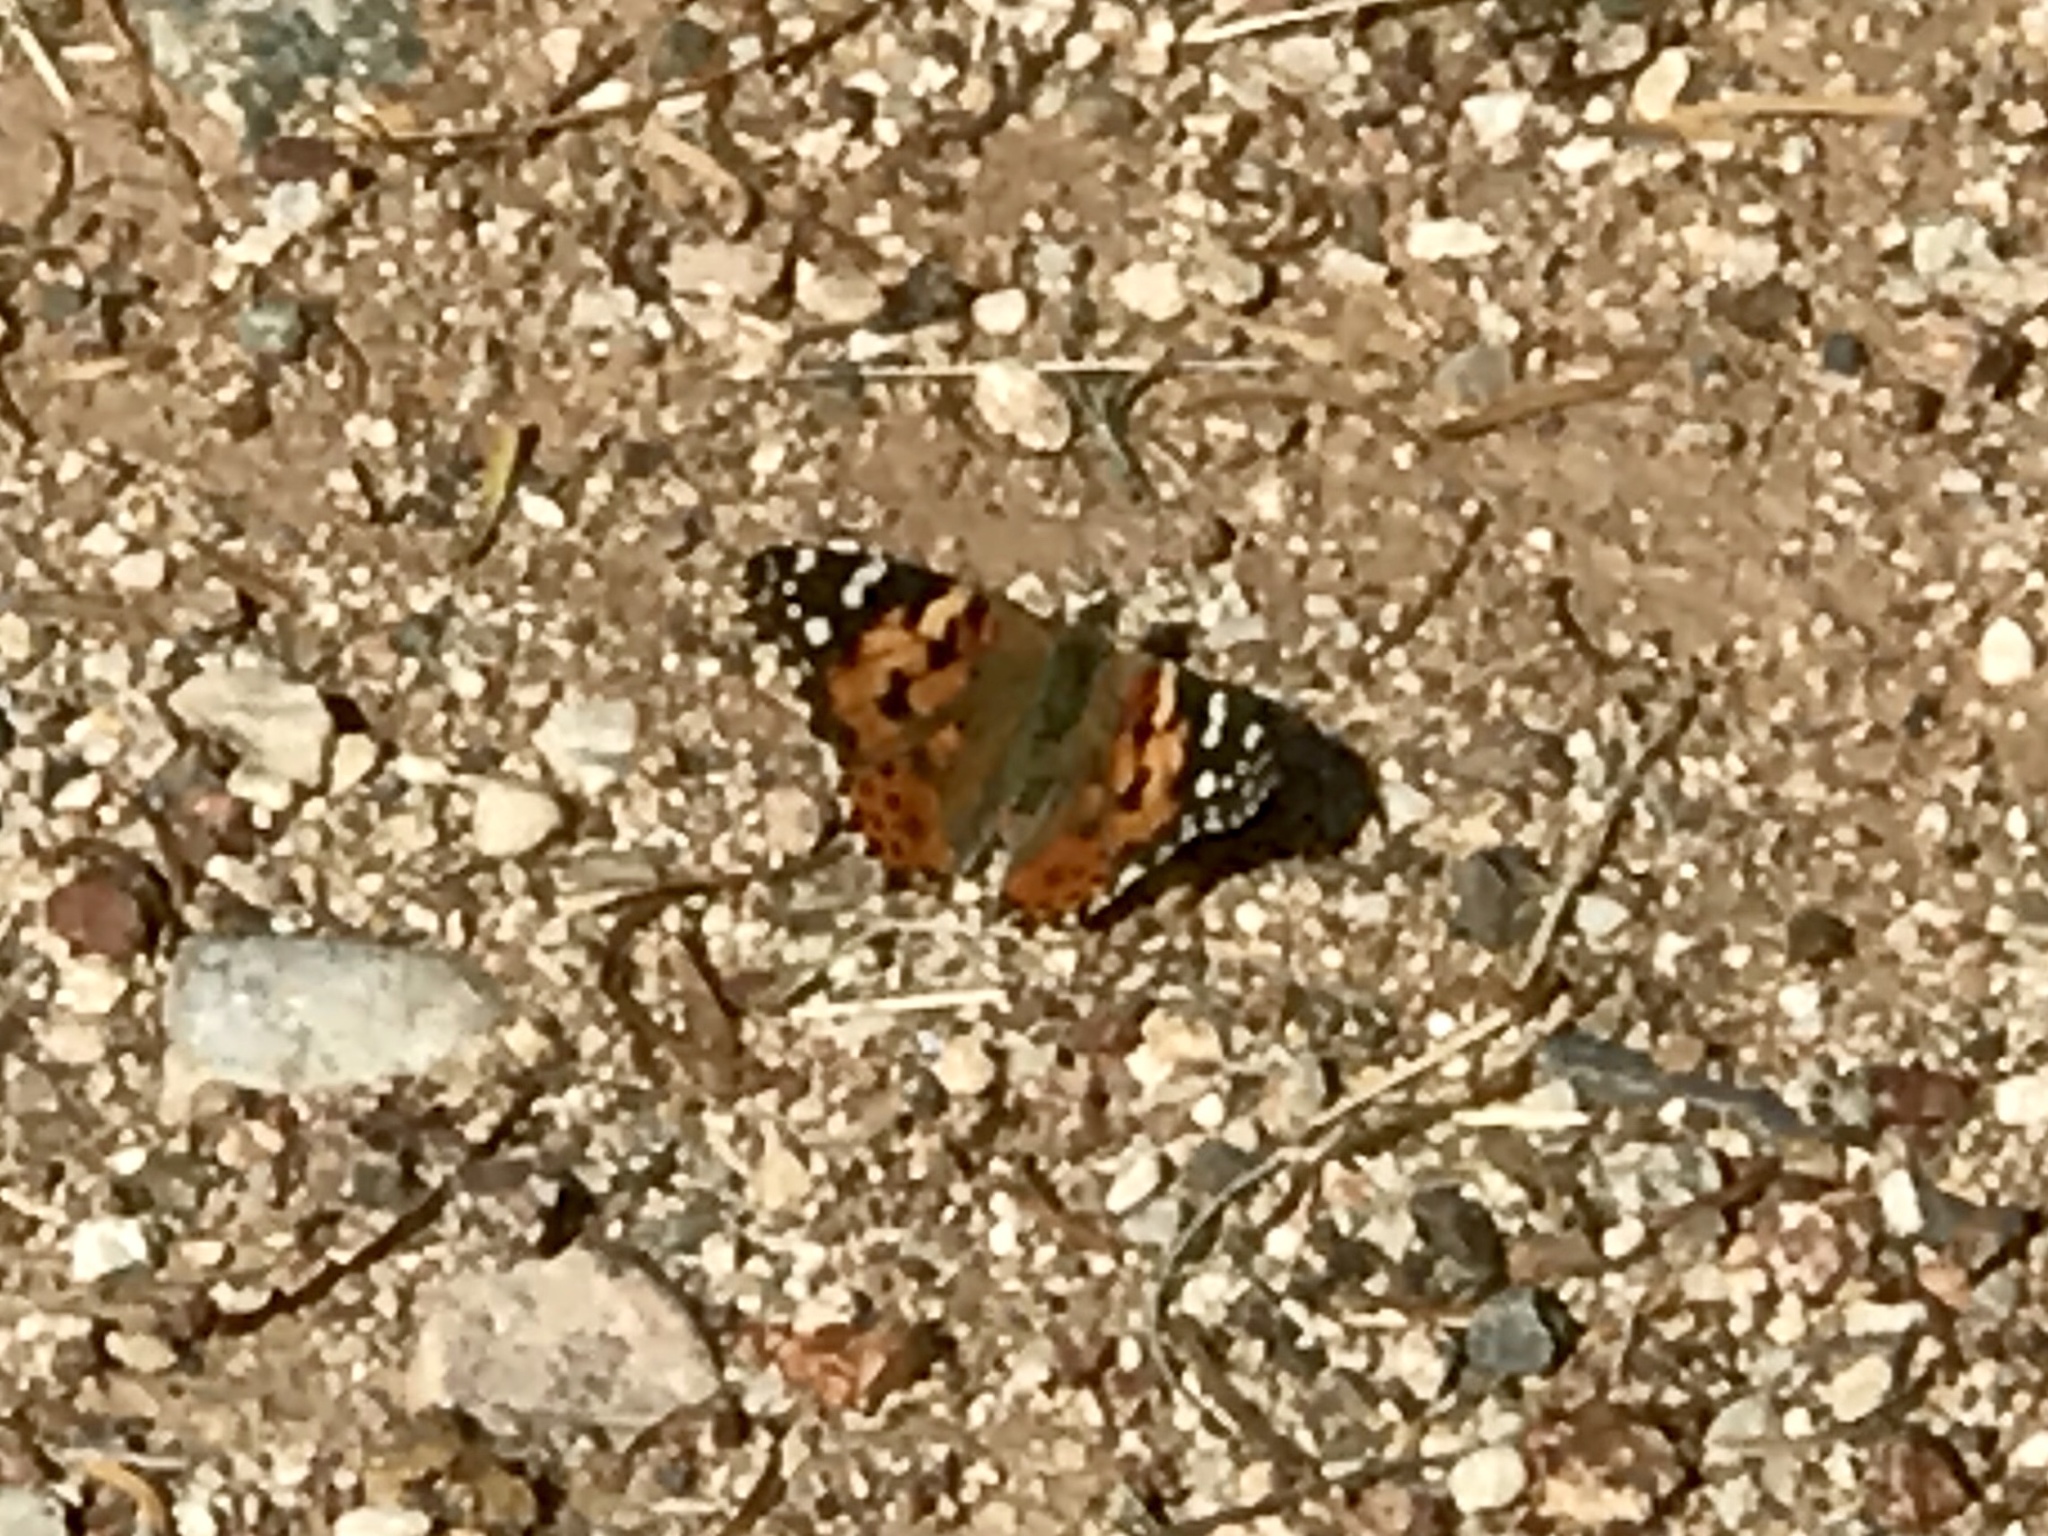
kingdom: Animalia
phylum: Arthropoda
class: Insecta
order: Lepidoptera
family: Nymphalidae
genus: Vanessa
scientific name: Vanessa cardui
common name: Painted lady
